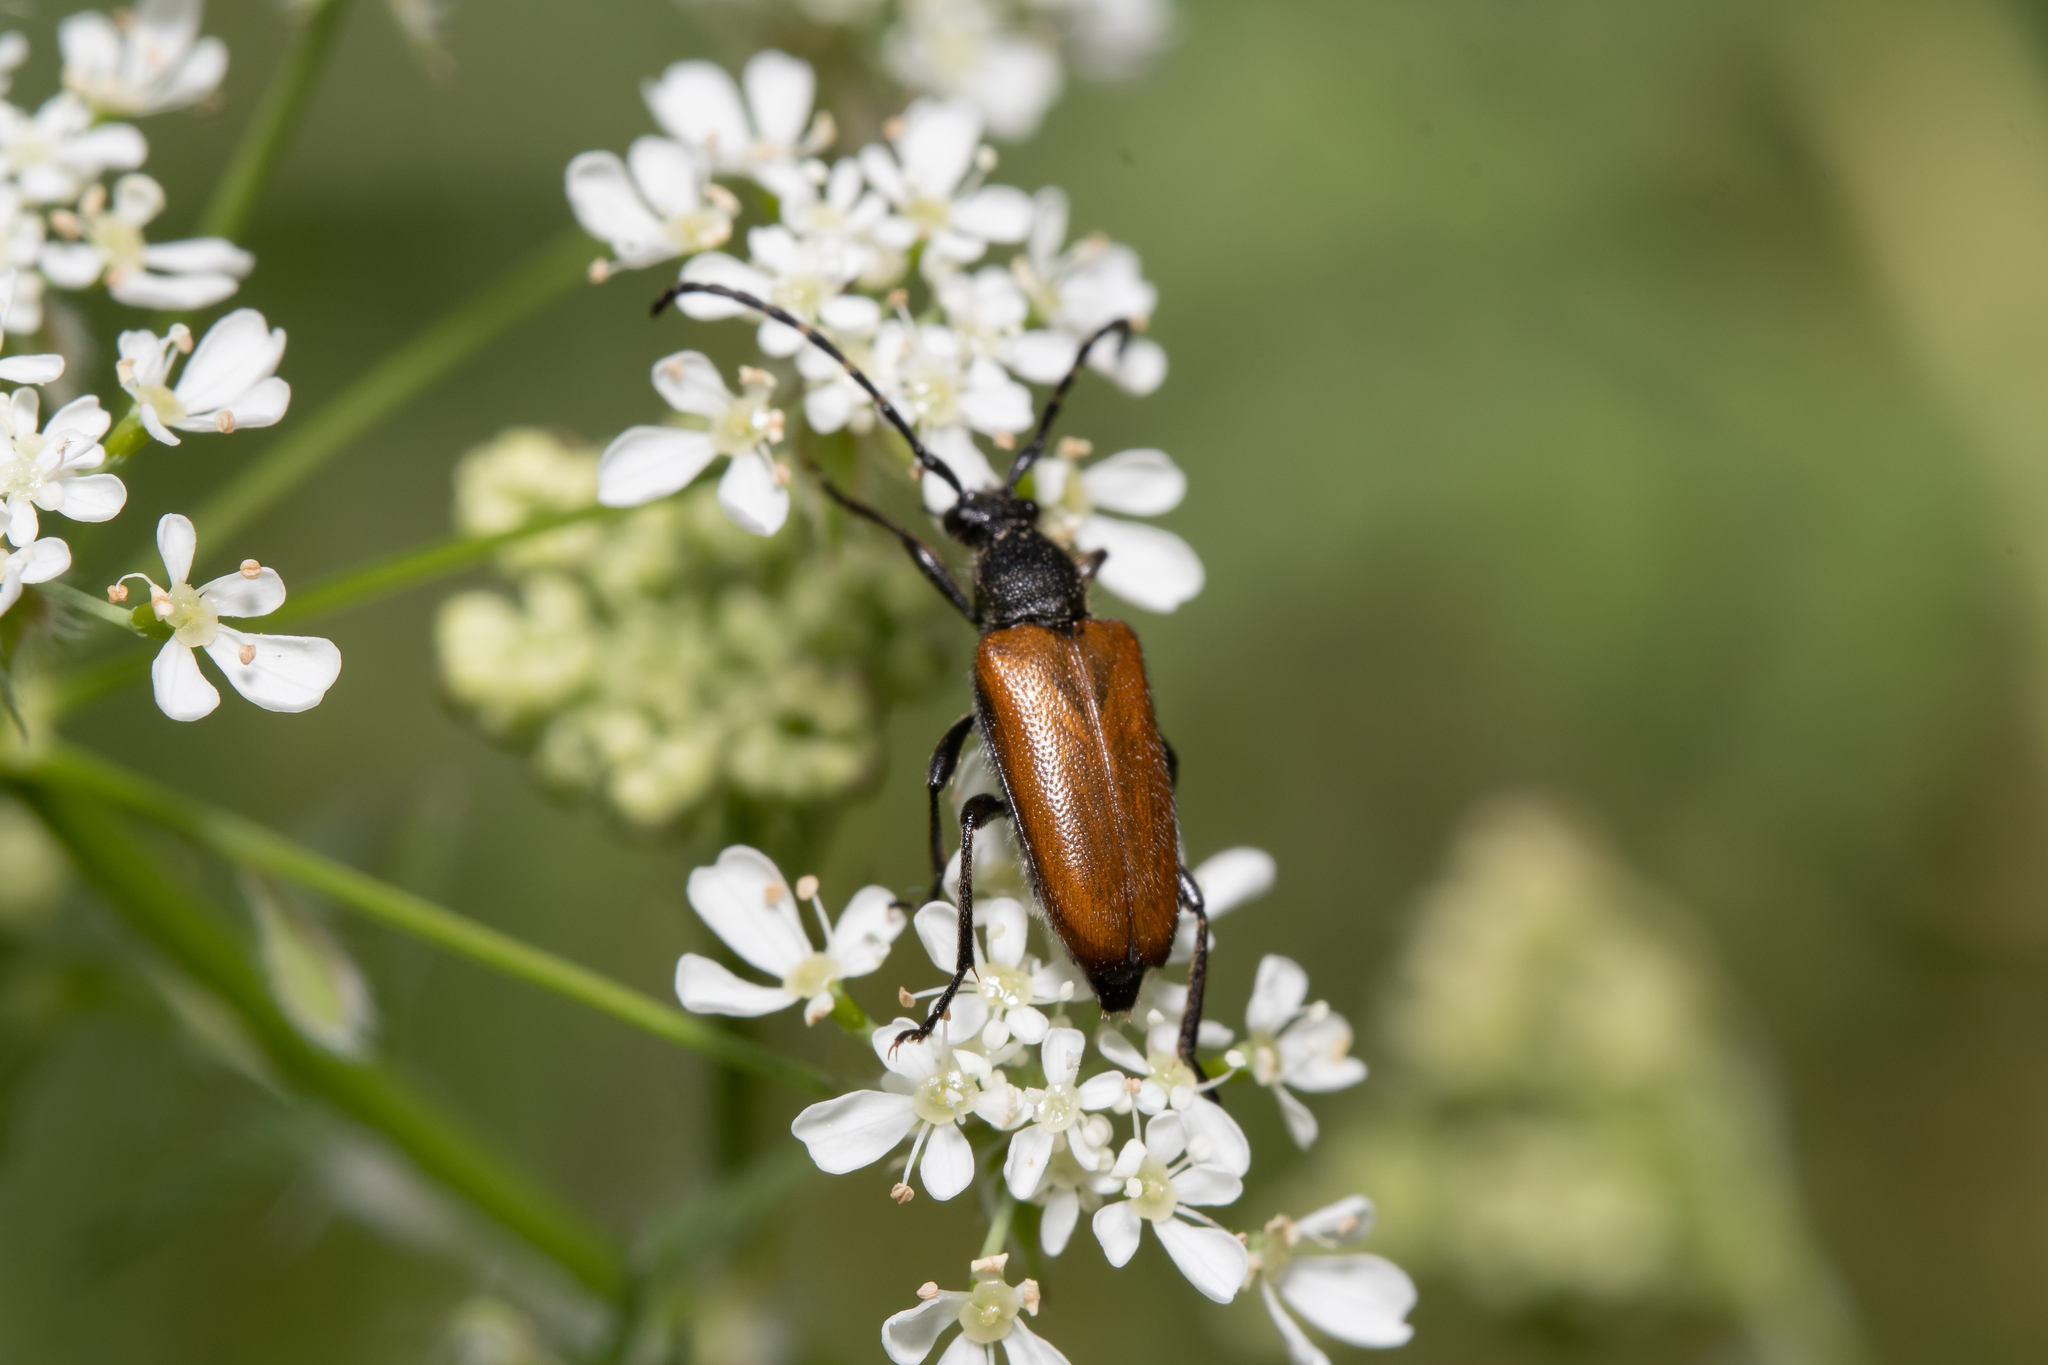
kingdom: Animalia
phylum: Arthropoda
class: Insecta
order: Coleoptera
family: Cerambycidae
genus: Paracorymbia
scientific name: Paracorymbia maculicornis
